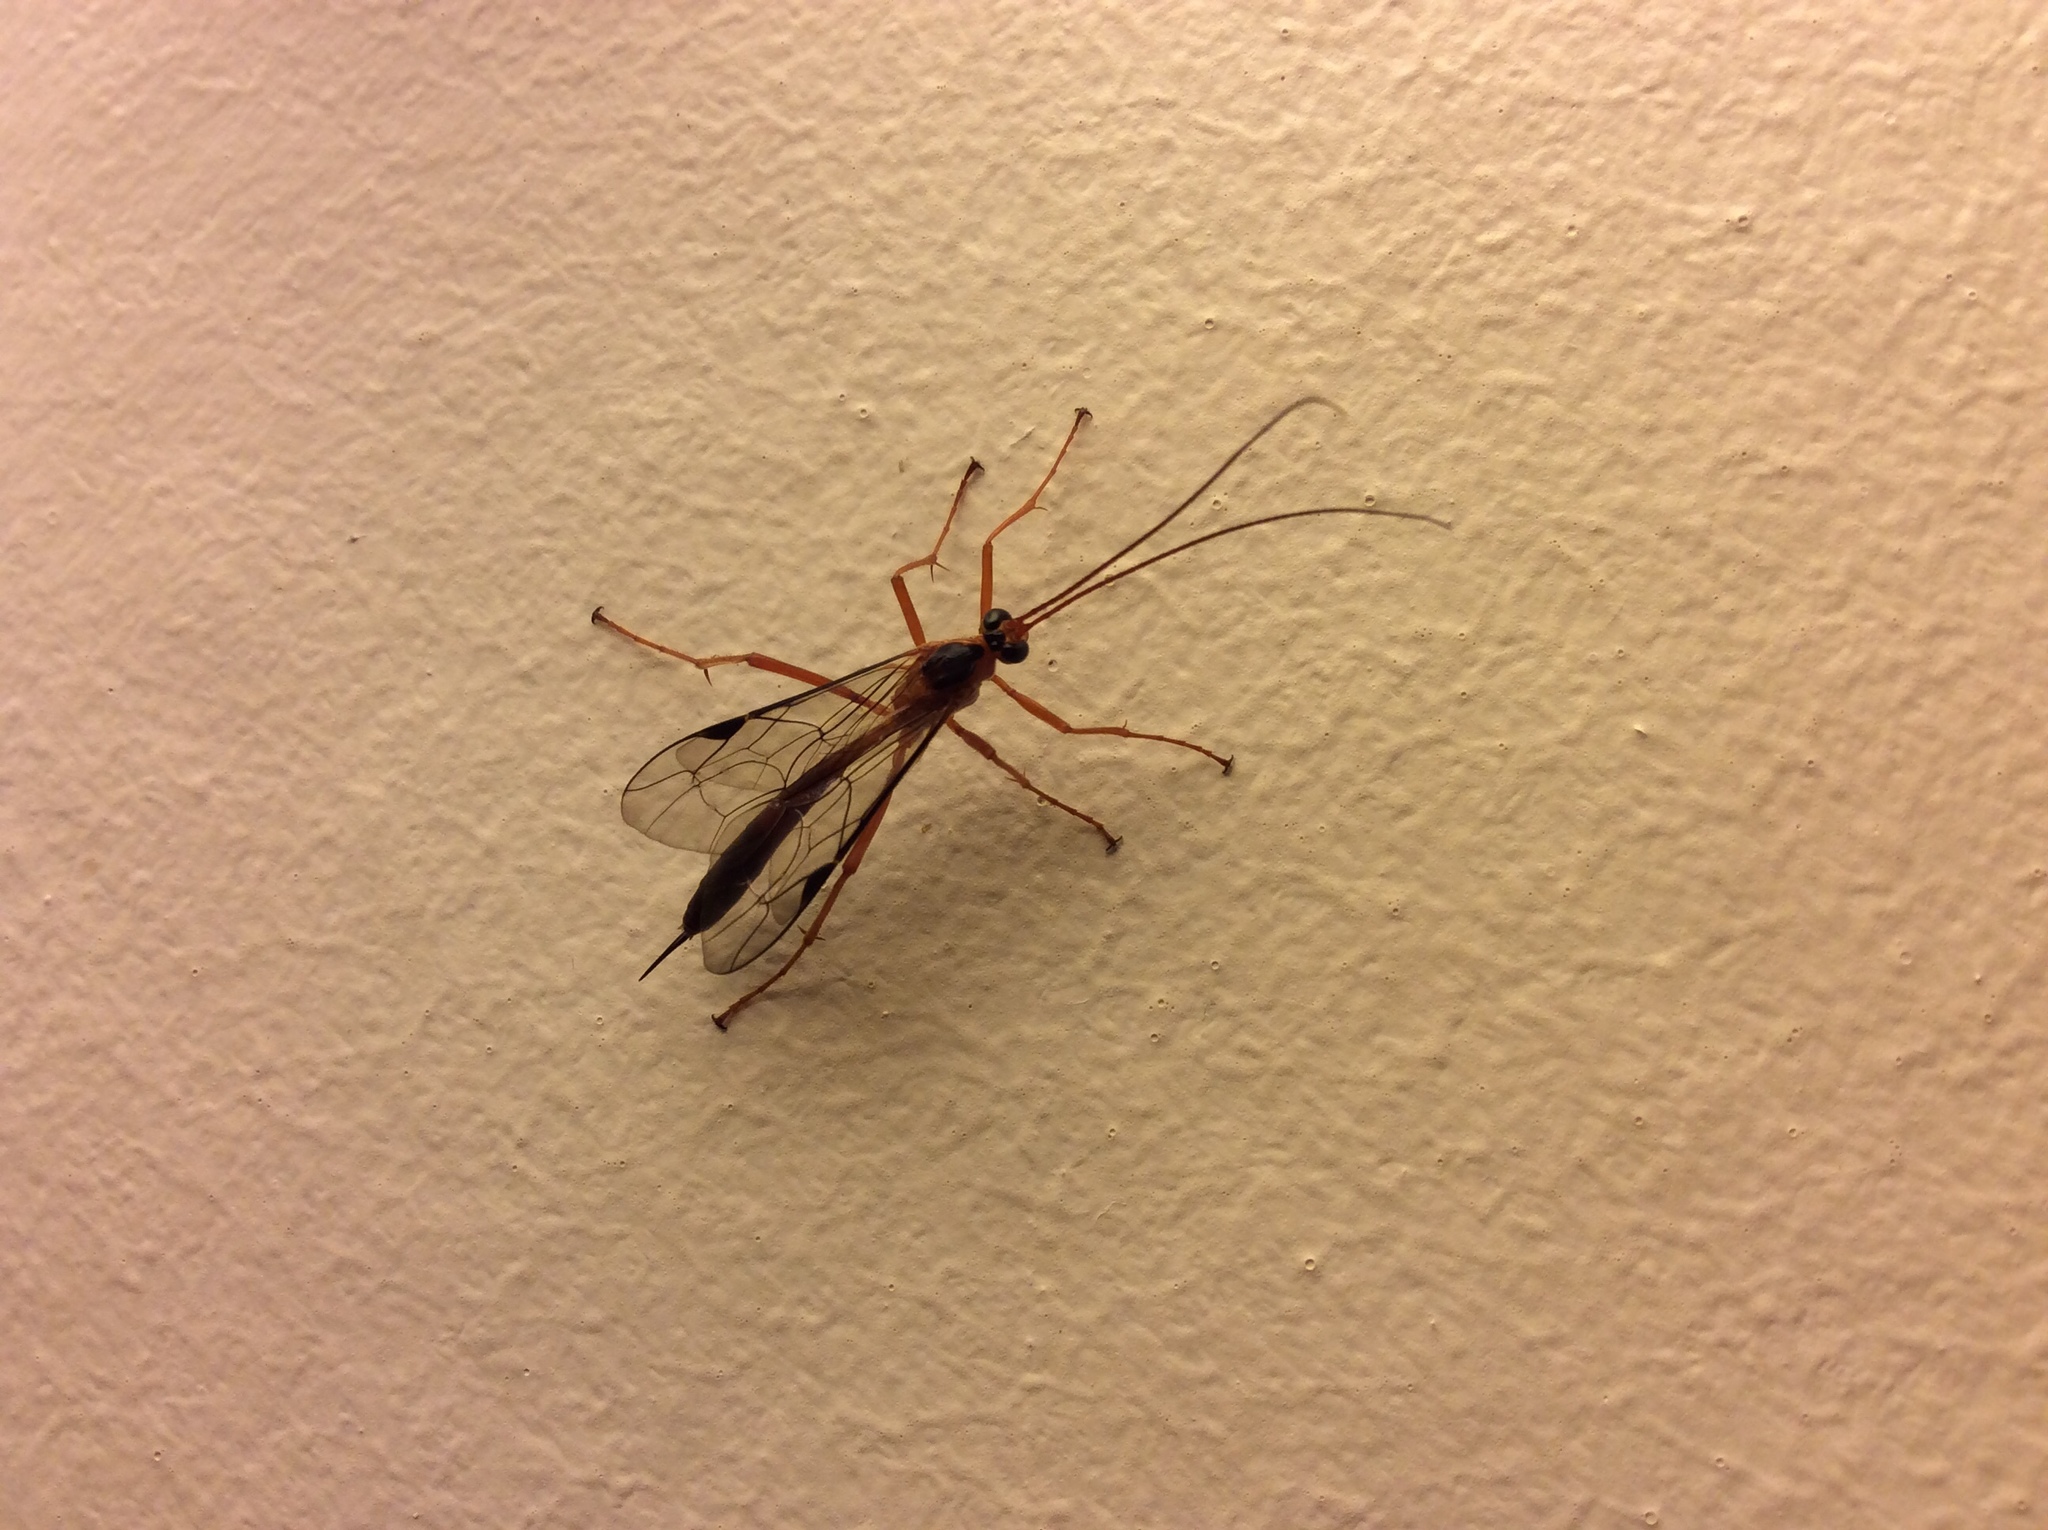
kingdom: Animalia
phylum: Arthropoda
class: Insecta
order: Hymenoptera
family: Ichneumonidae
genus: Netelia
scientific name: Netelia ephippiata
